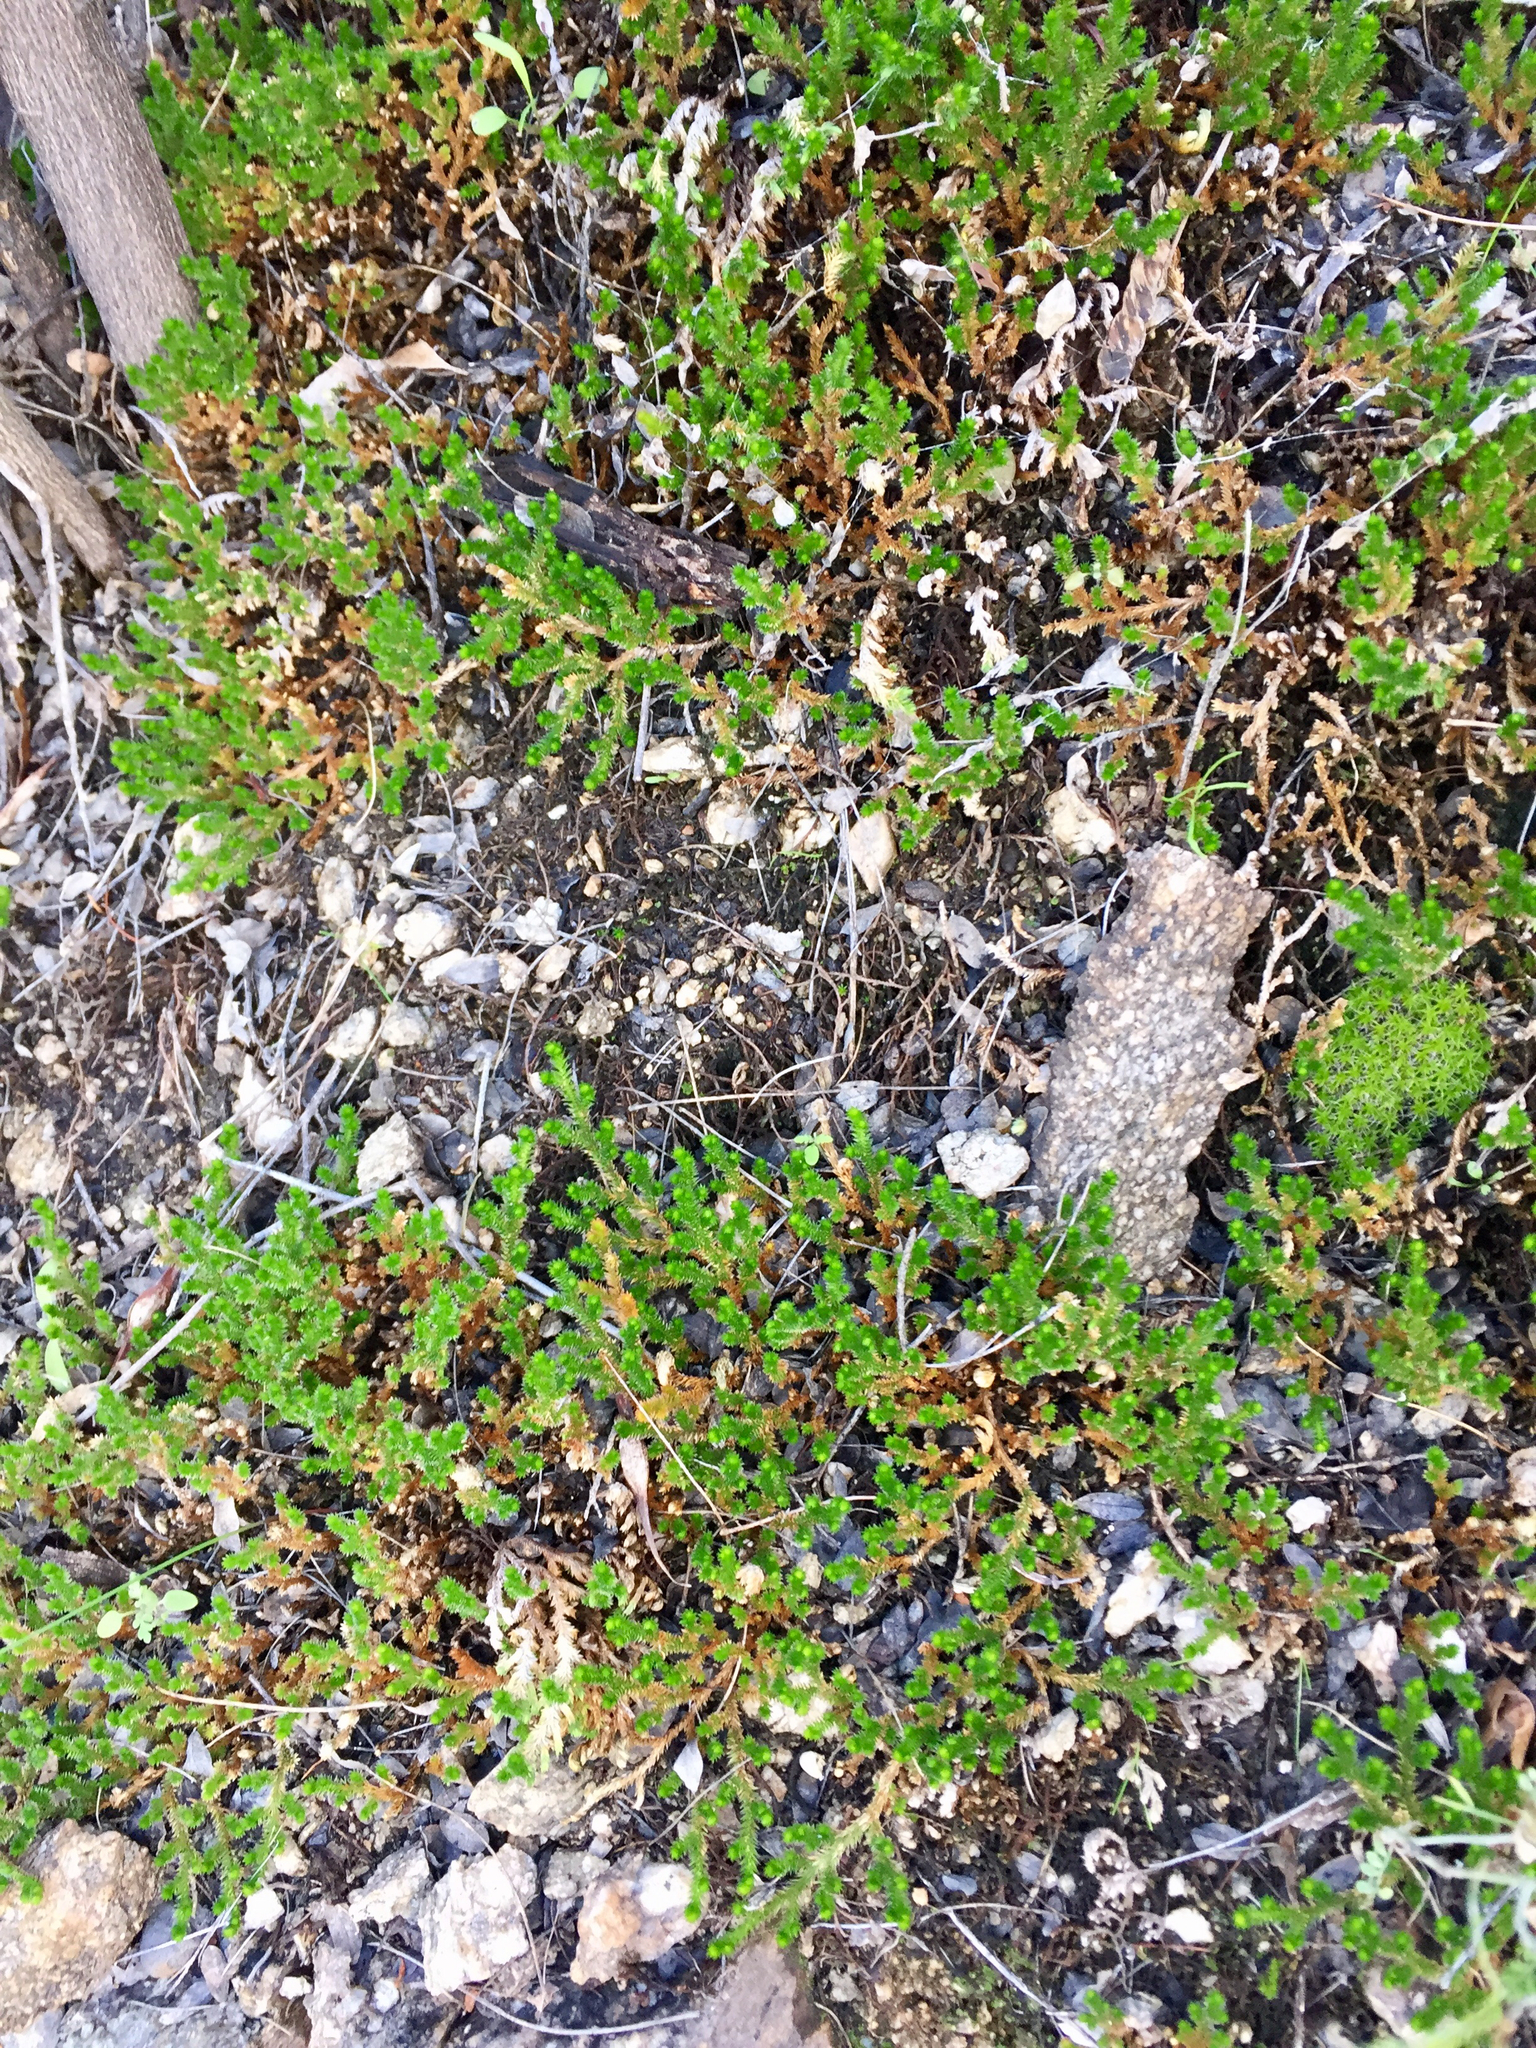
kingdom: Plantae
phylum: Tracheophyta
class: Lycopodiopsida
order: Selaginellales
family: Selaginellaceae
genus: Selaginella
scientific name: Selaginella arizonica
